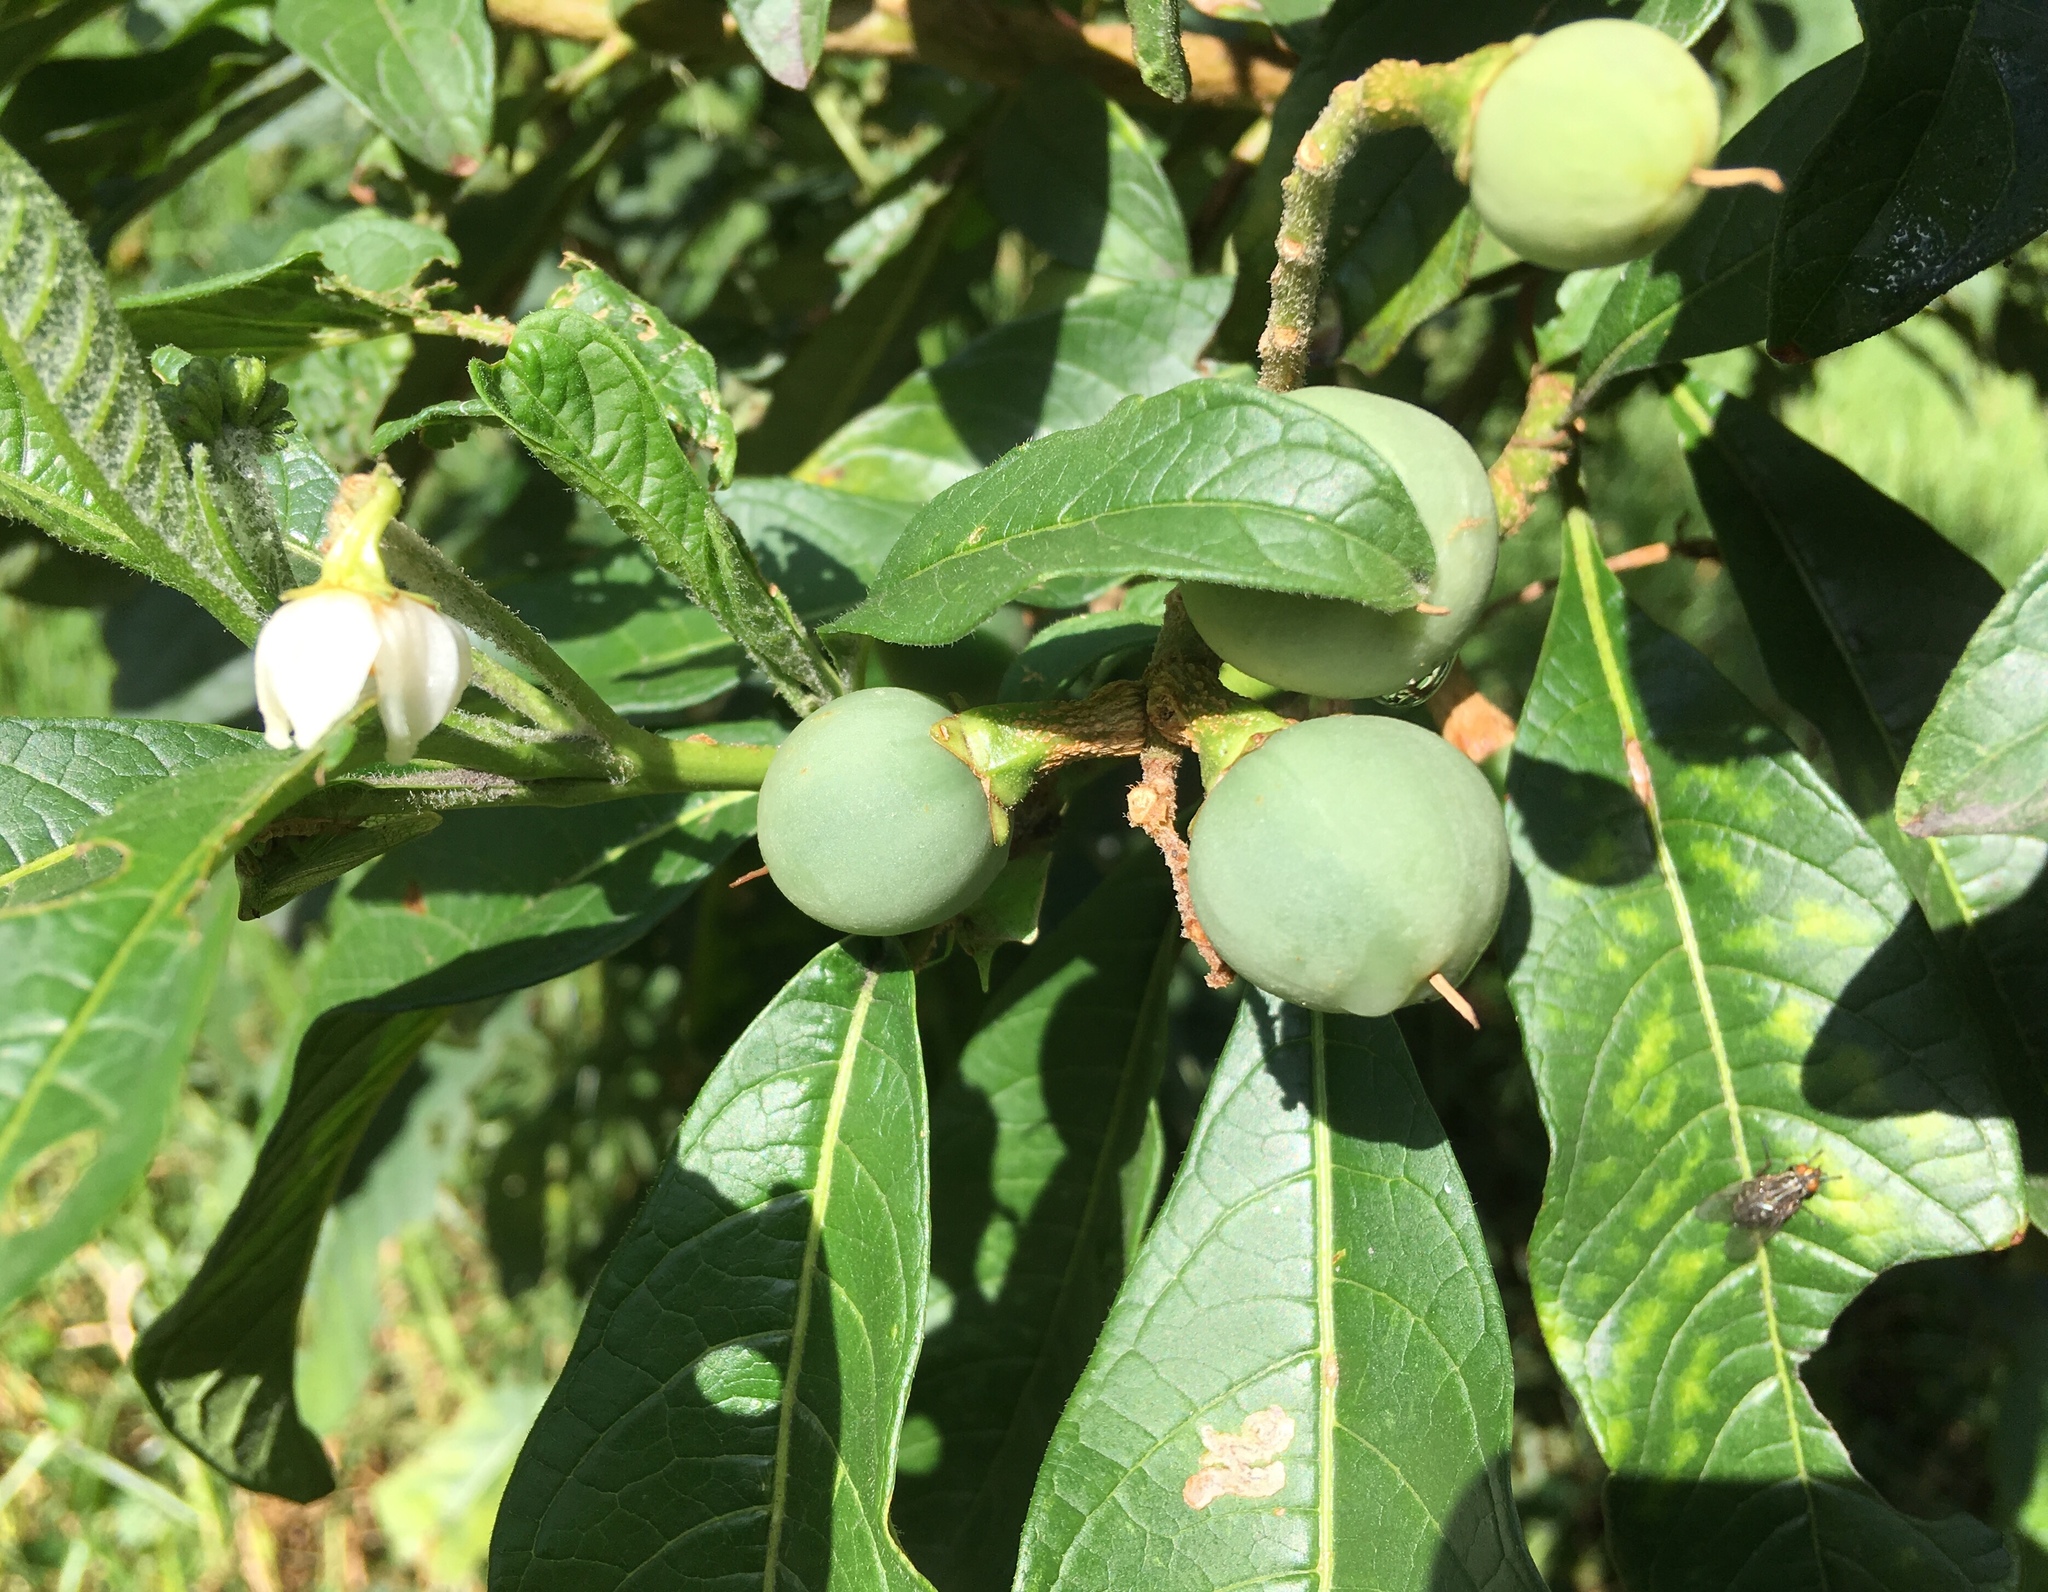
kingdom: Plantae
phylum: Tracheophyta
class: Magnoliopsida
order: Solanales
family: Solanaceae
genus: Solanum
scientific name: Solanum oblongifolium
